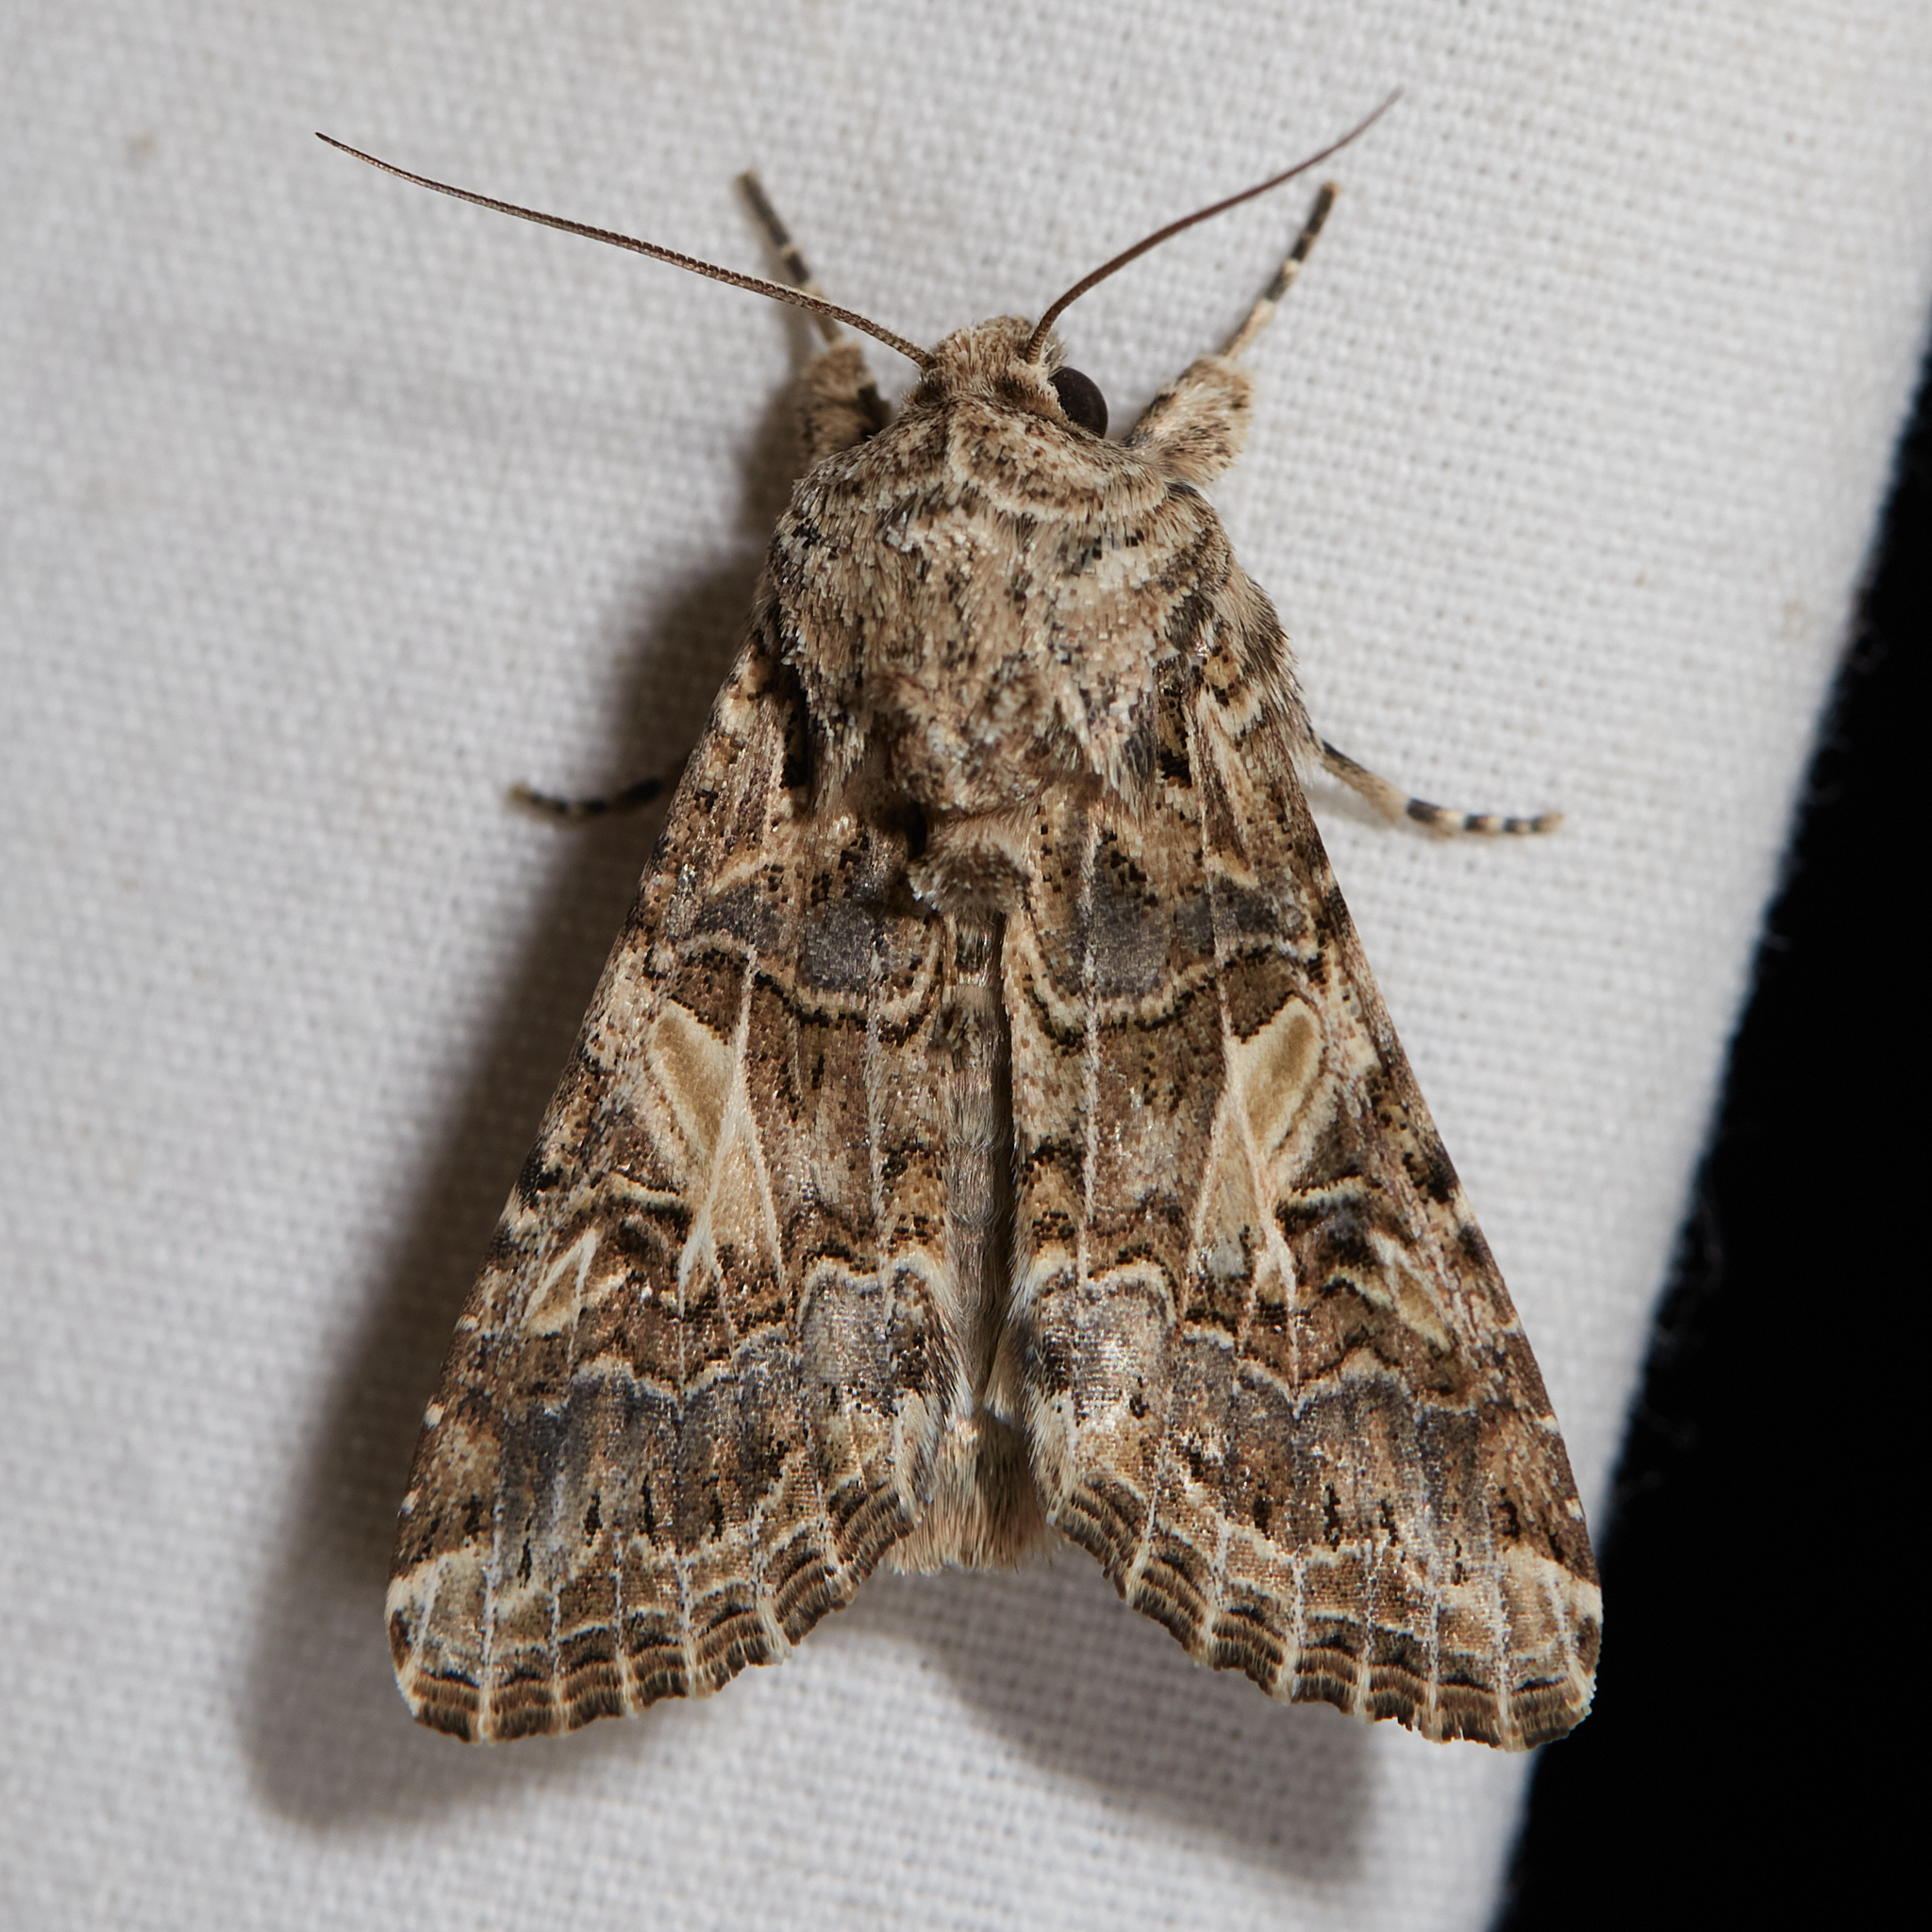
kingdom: Animalia
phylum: Arthropoda
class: Insecta
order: Lepidoptera
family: Noctuidae
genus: Spodoptera
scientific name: Spodoptera praefica
